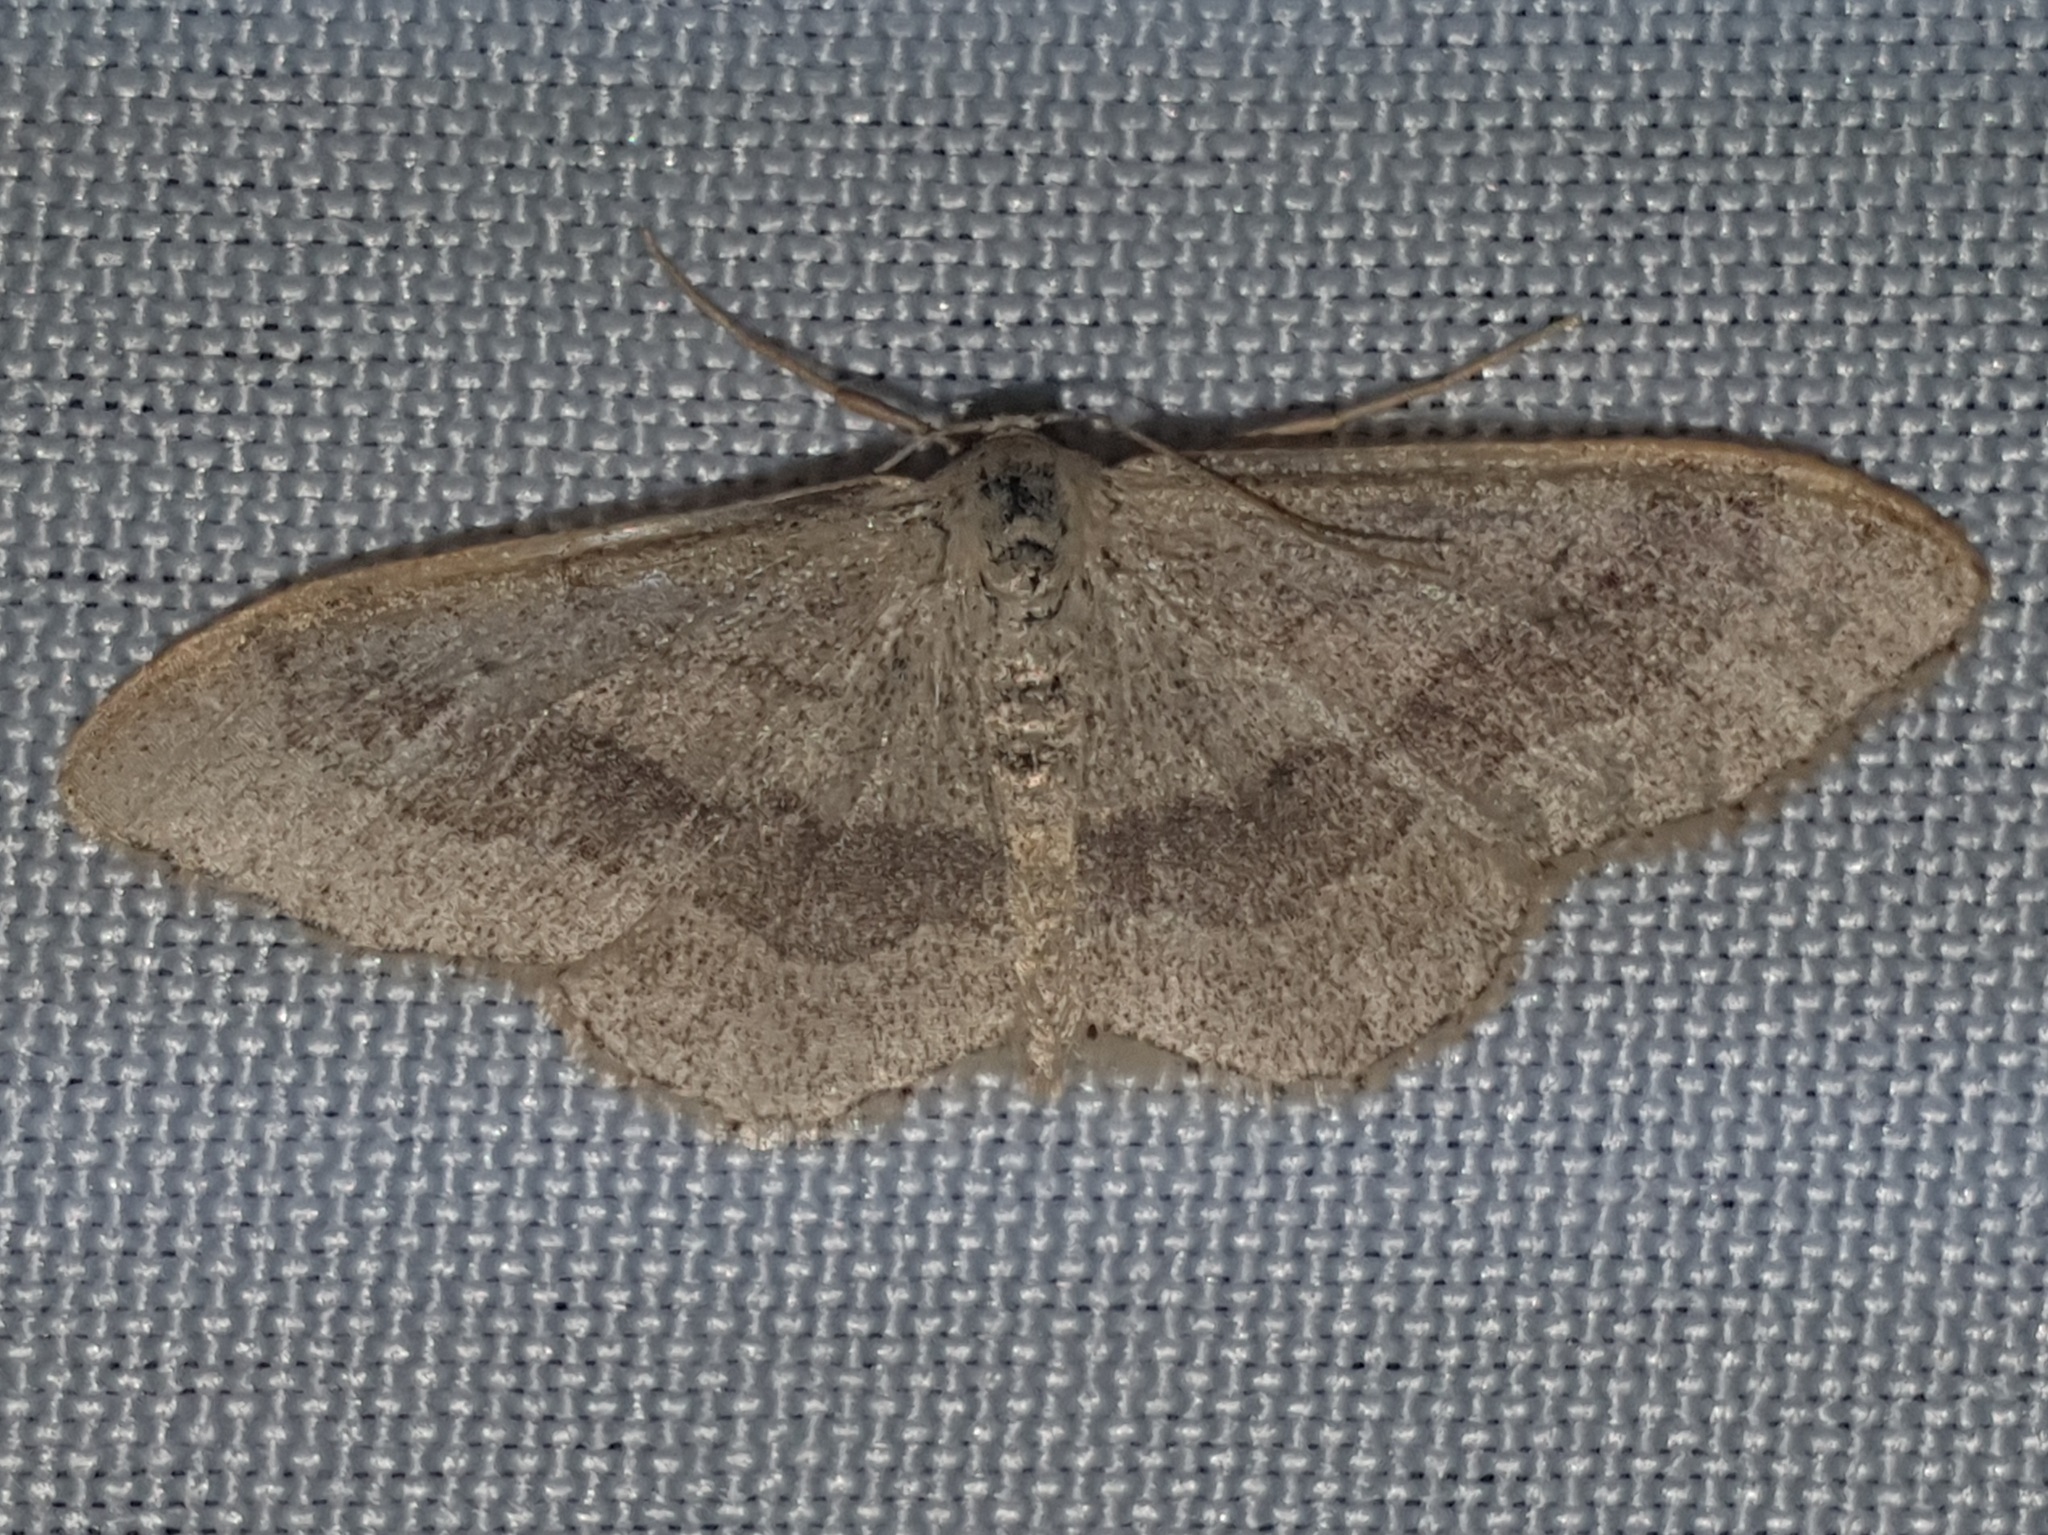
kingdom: Animalia
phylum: Arthropoda
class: Insecta
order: Lepidoptera
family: Geometridae
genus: Idaea
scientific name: Idaea aversata
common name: Riband wave
